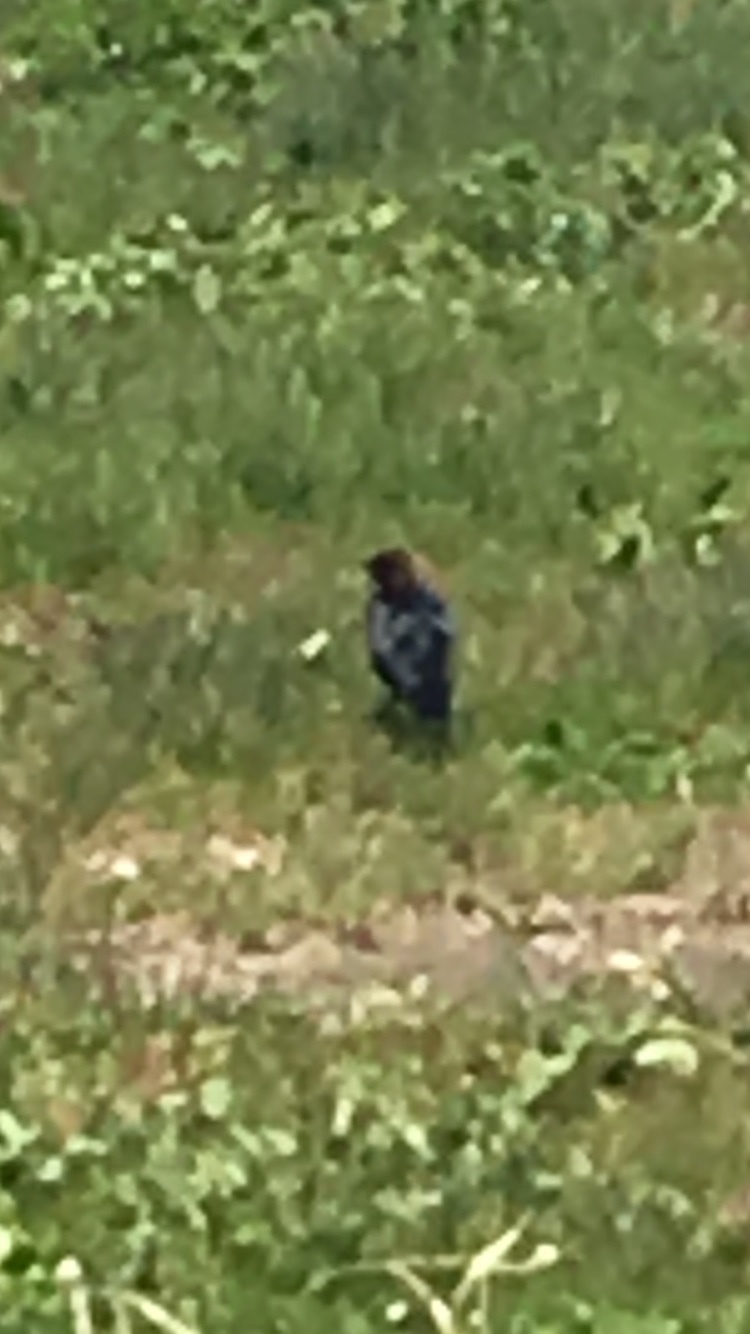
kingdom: Animalia
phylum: Chordata
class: Aves
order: Passeriformes
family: Icteridae
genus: Molothrus
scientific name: Molothrus ater
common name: Brown-headed cowbird
